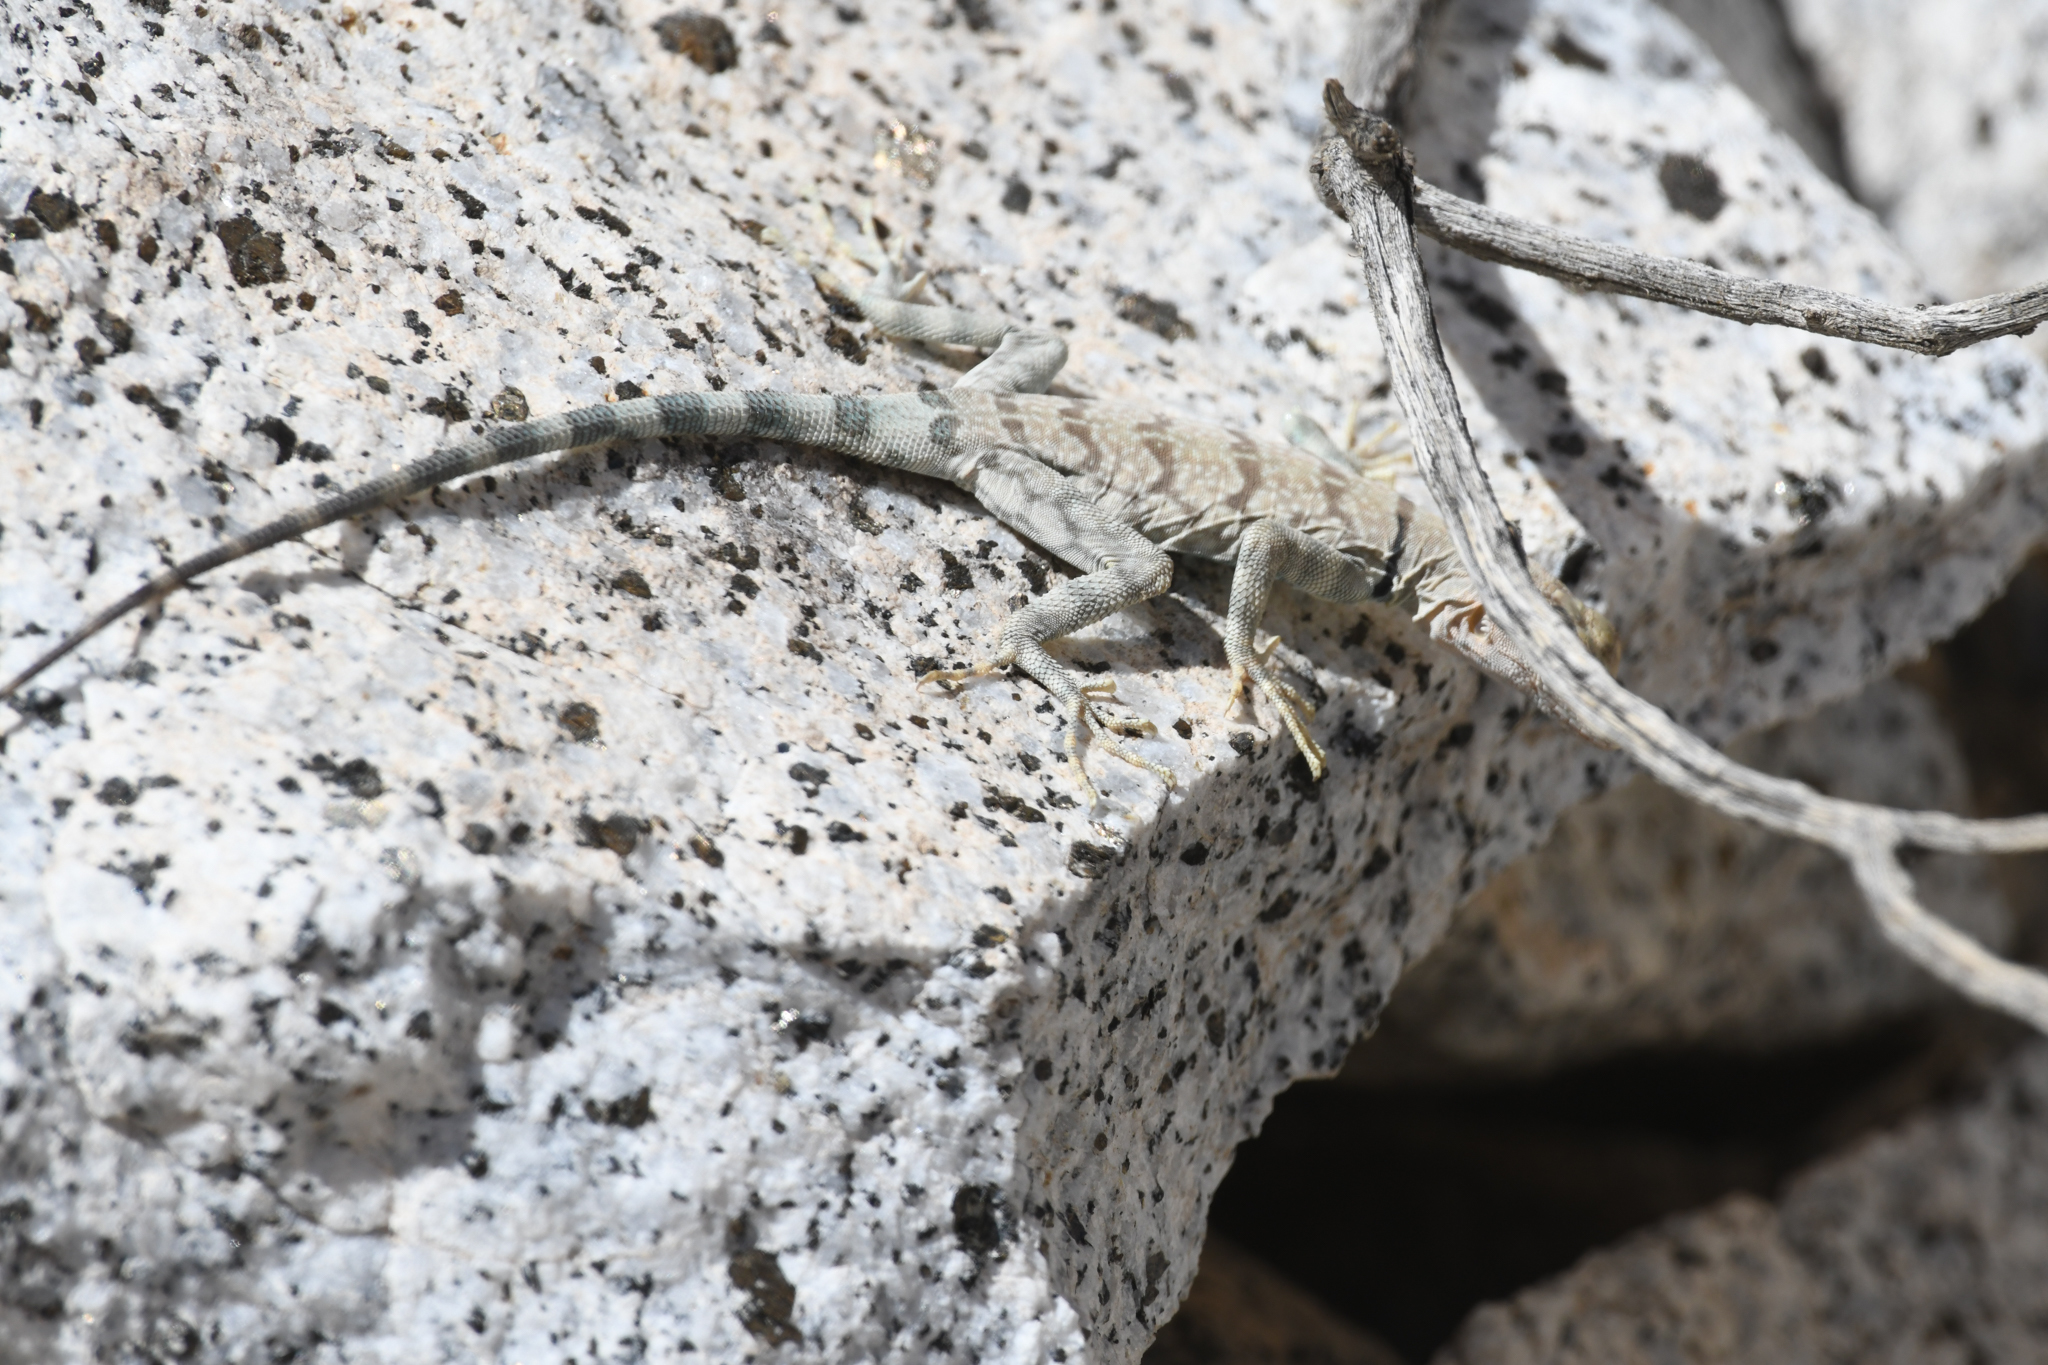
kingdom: Animalia
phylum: Chordata
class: Squamata
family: Phrynosomatidae
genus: Petrosaurus
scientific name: Petrosaurus mearnsi
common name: Banded rock lizard
